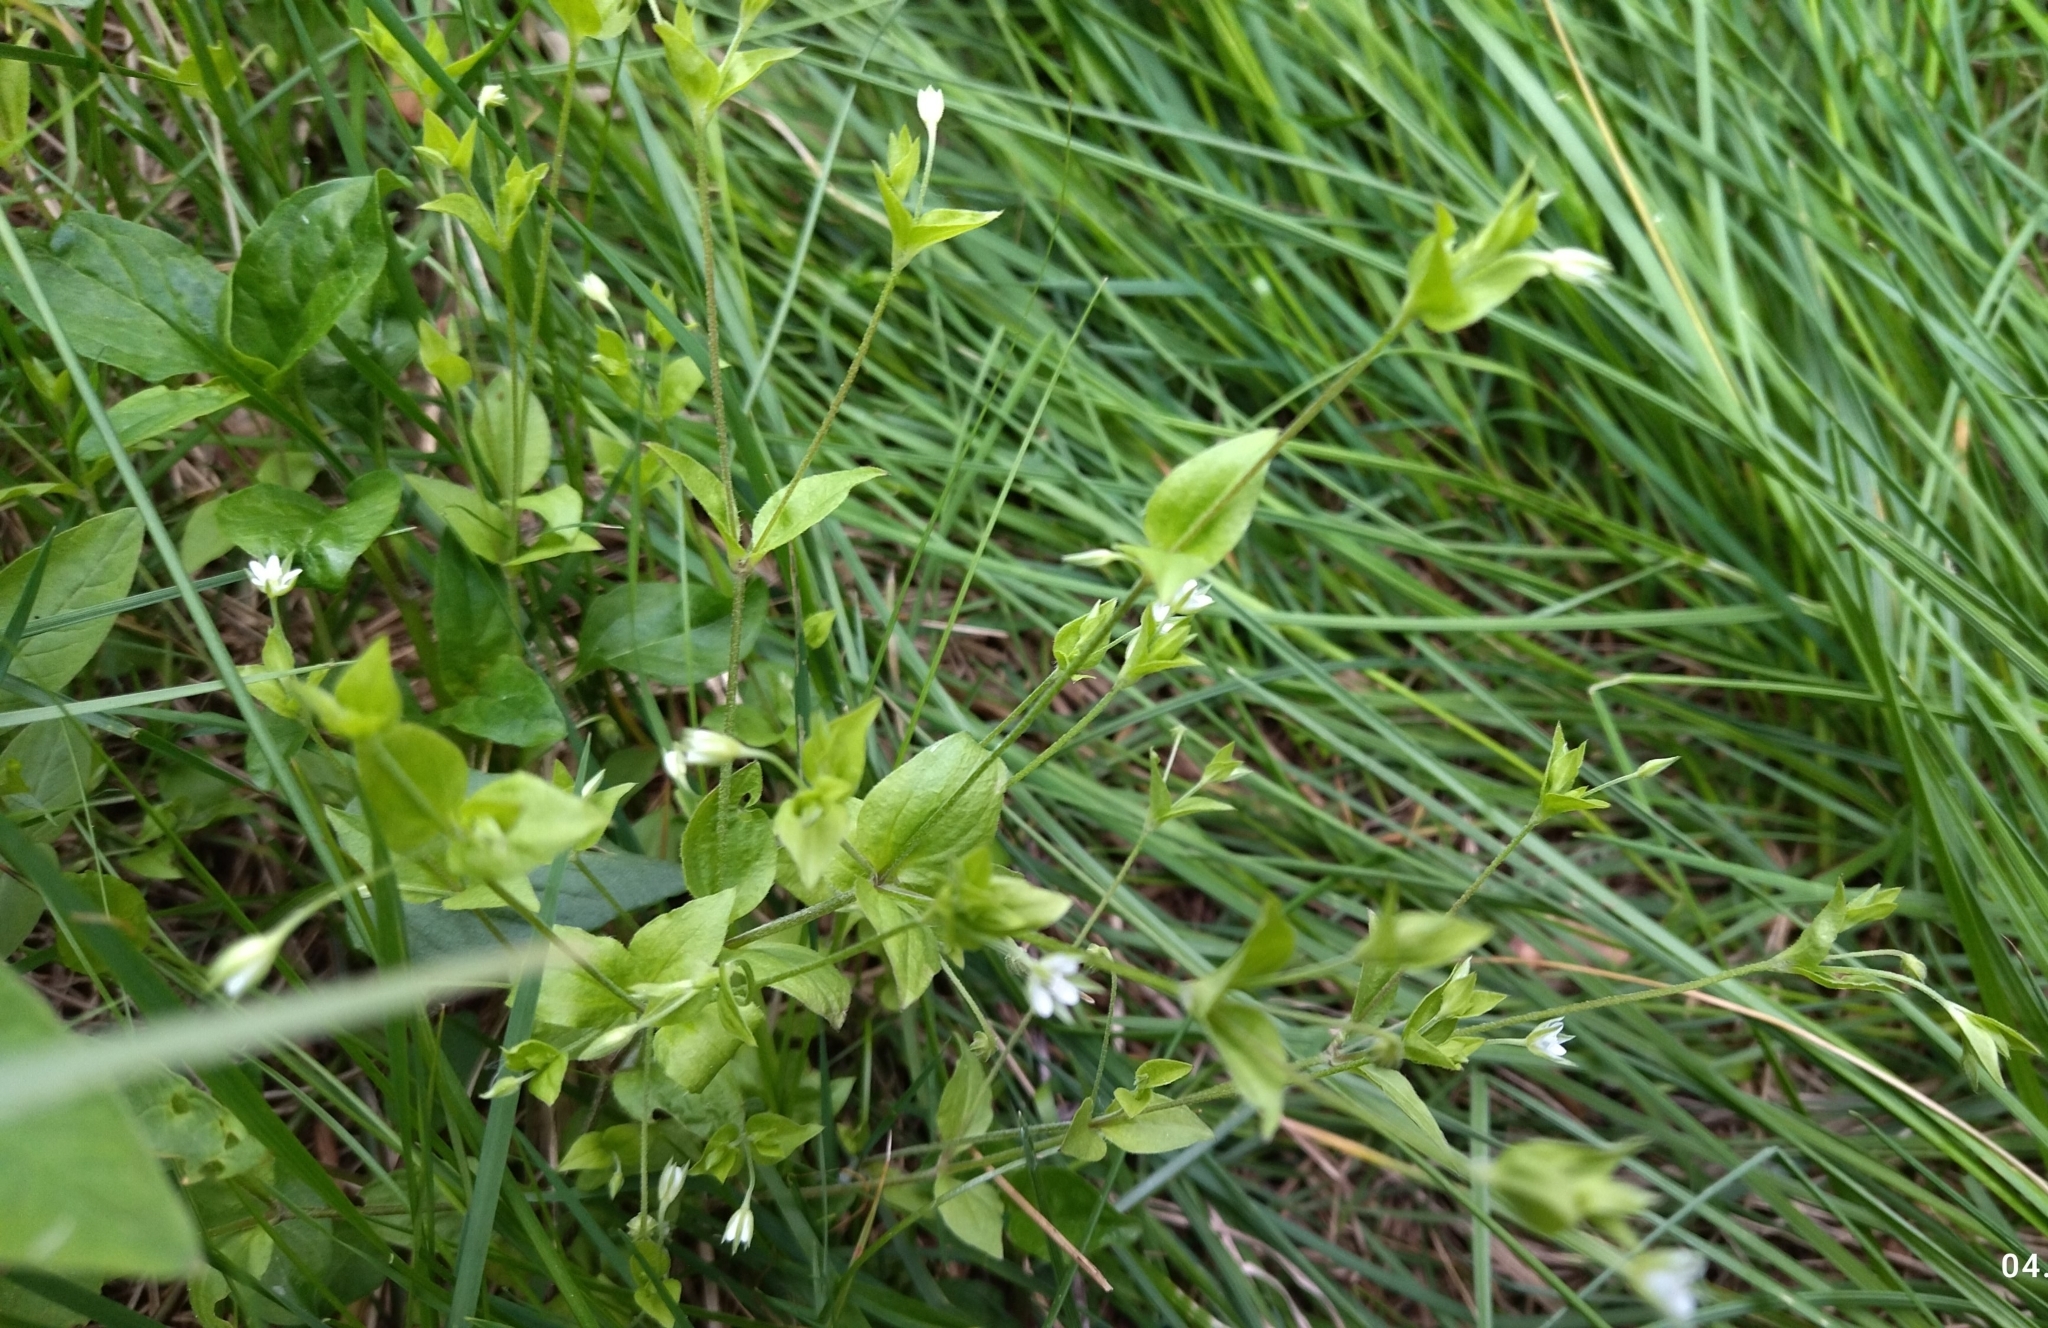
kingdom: Plantae
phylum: Tracheophyta
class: Magnoliopsida
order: Caryophyllales
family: Caryophyllaceae
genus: Moehringia
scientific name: Moehringia trinervia
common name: Three-nerved sandwort
